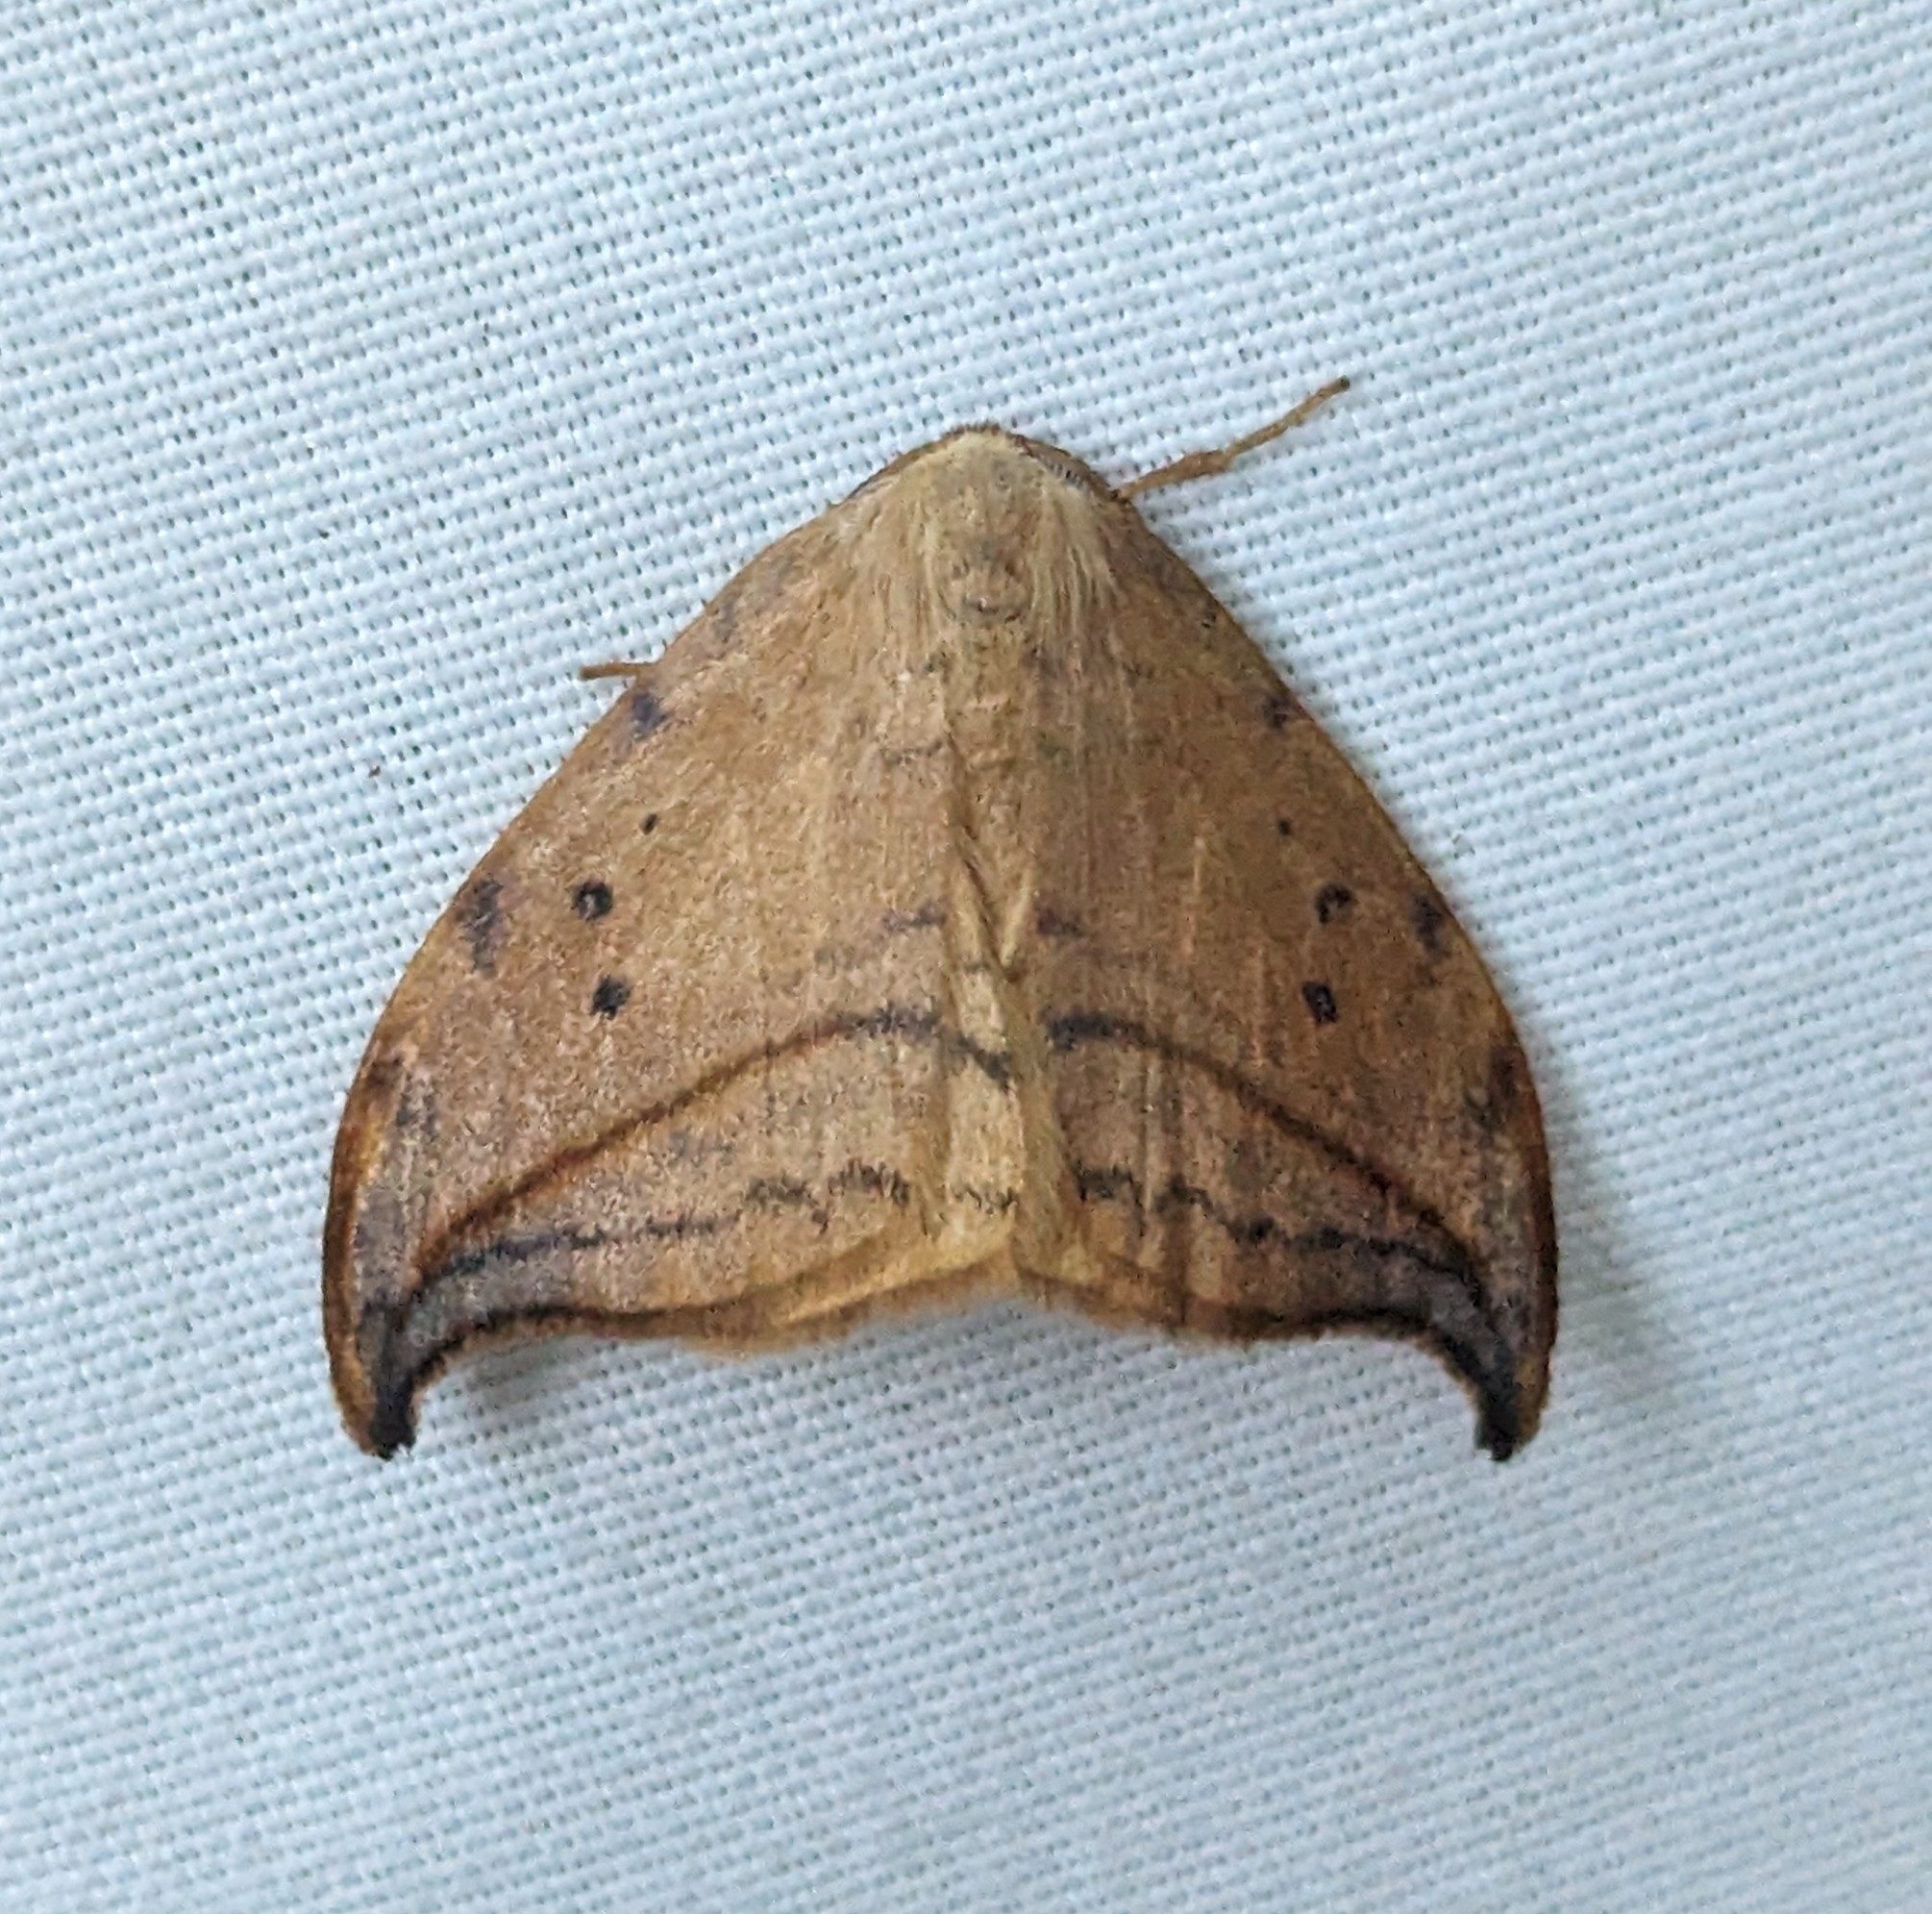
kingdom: Animalia
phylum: Arthropoda
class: Insecta
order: Lepidoptera
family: Drepanidae
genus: Drepana
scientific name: Drepana arcuata
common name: Arched hooktip moth
